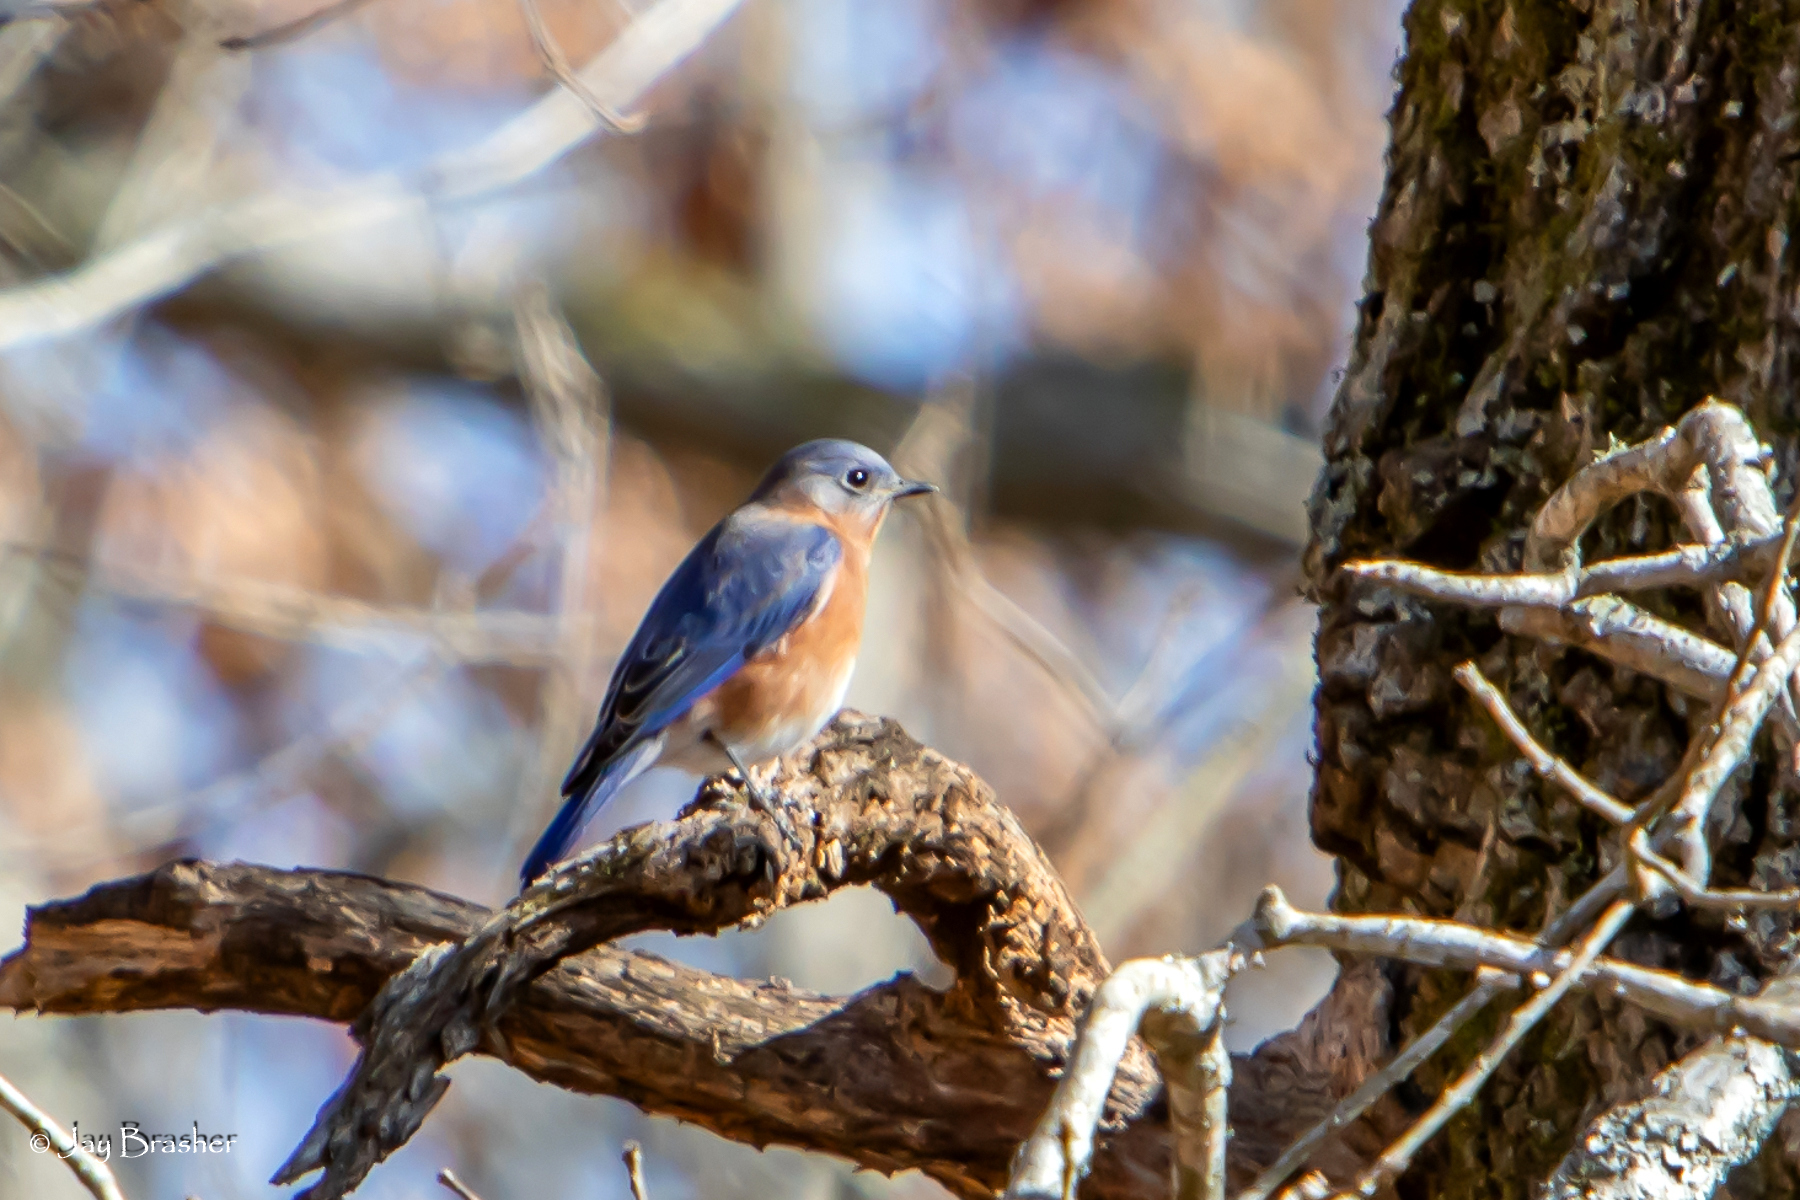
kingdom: Animalia
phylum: Chordata
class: Aves
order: Passeriformes
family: Turdidae
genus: Sialia
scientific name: Sialia sialis
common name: Eastern bluebird
